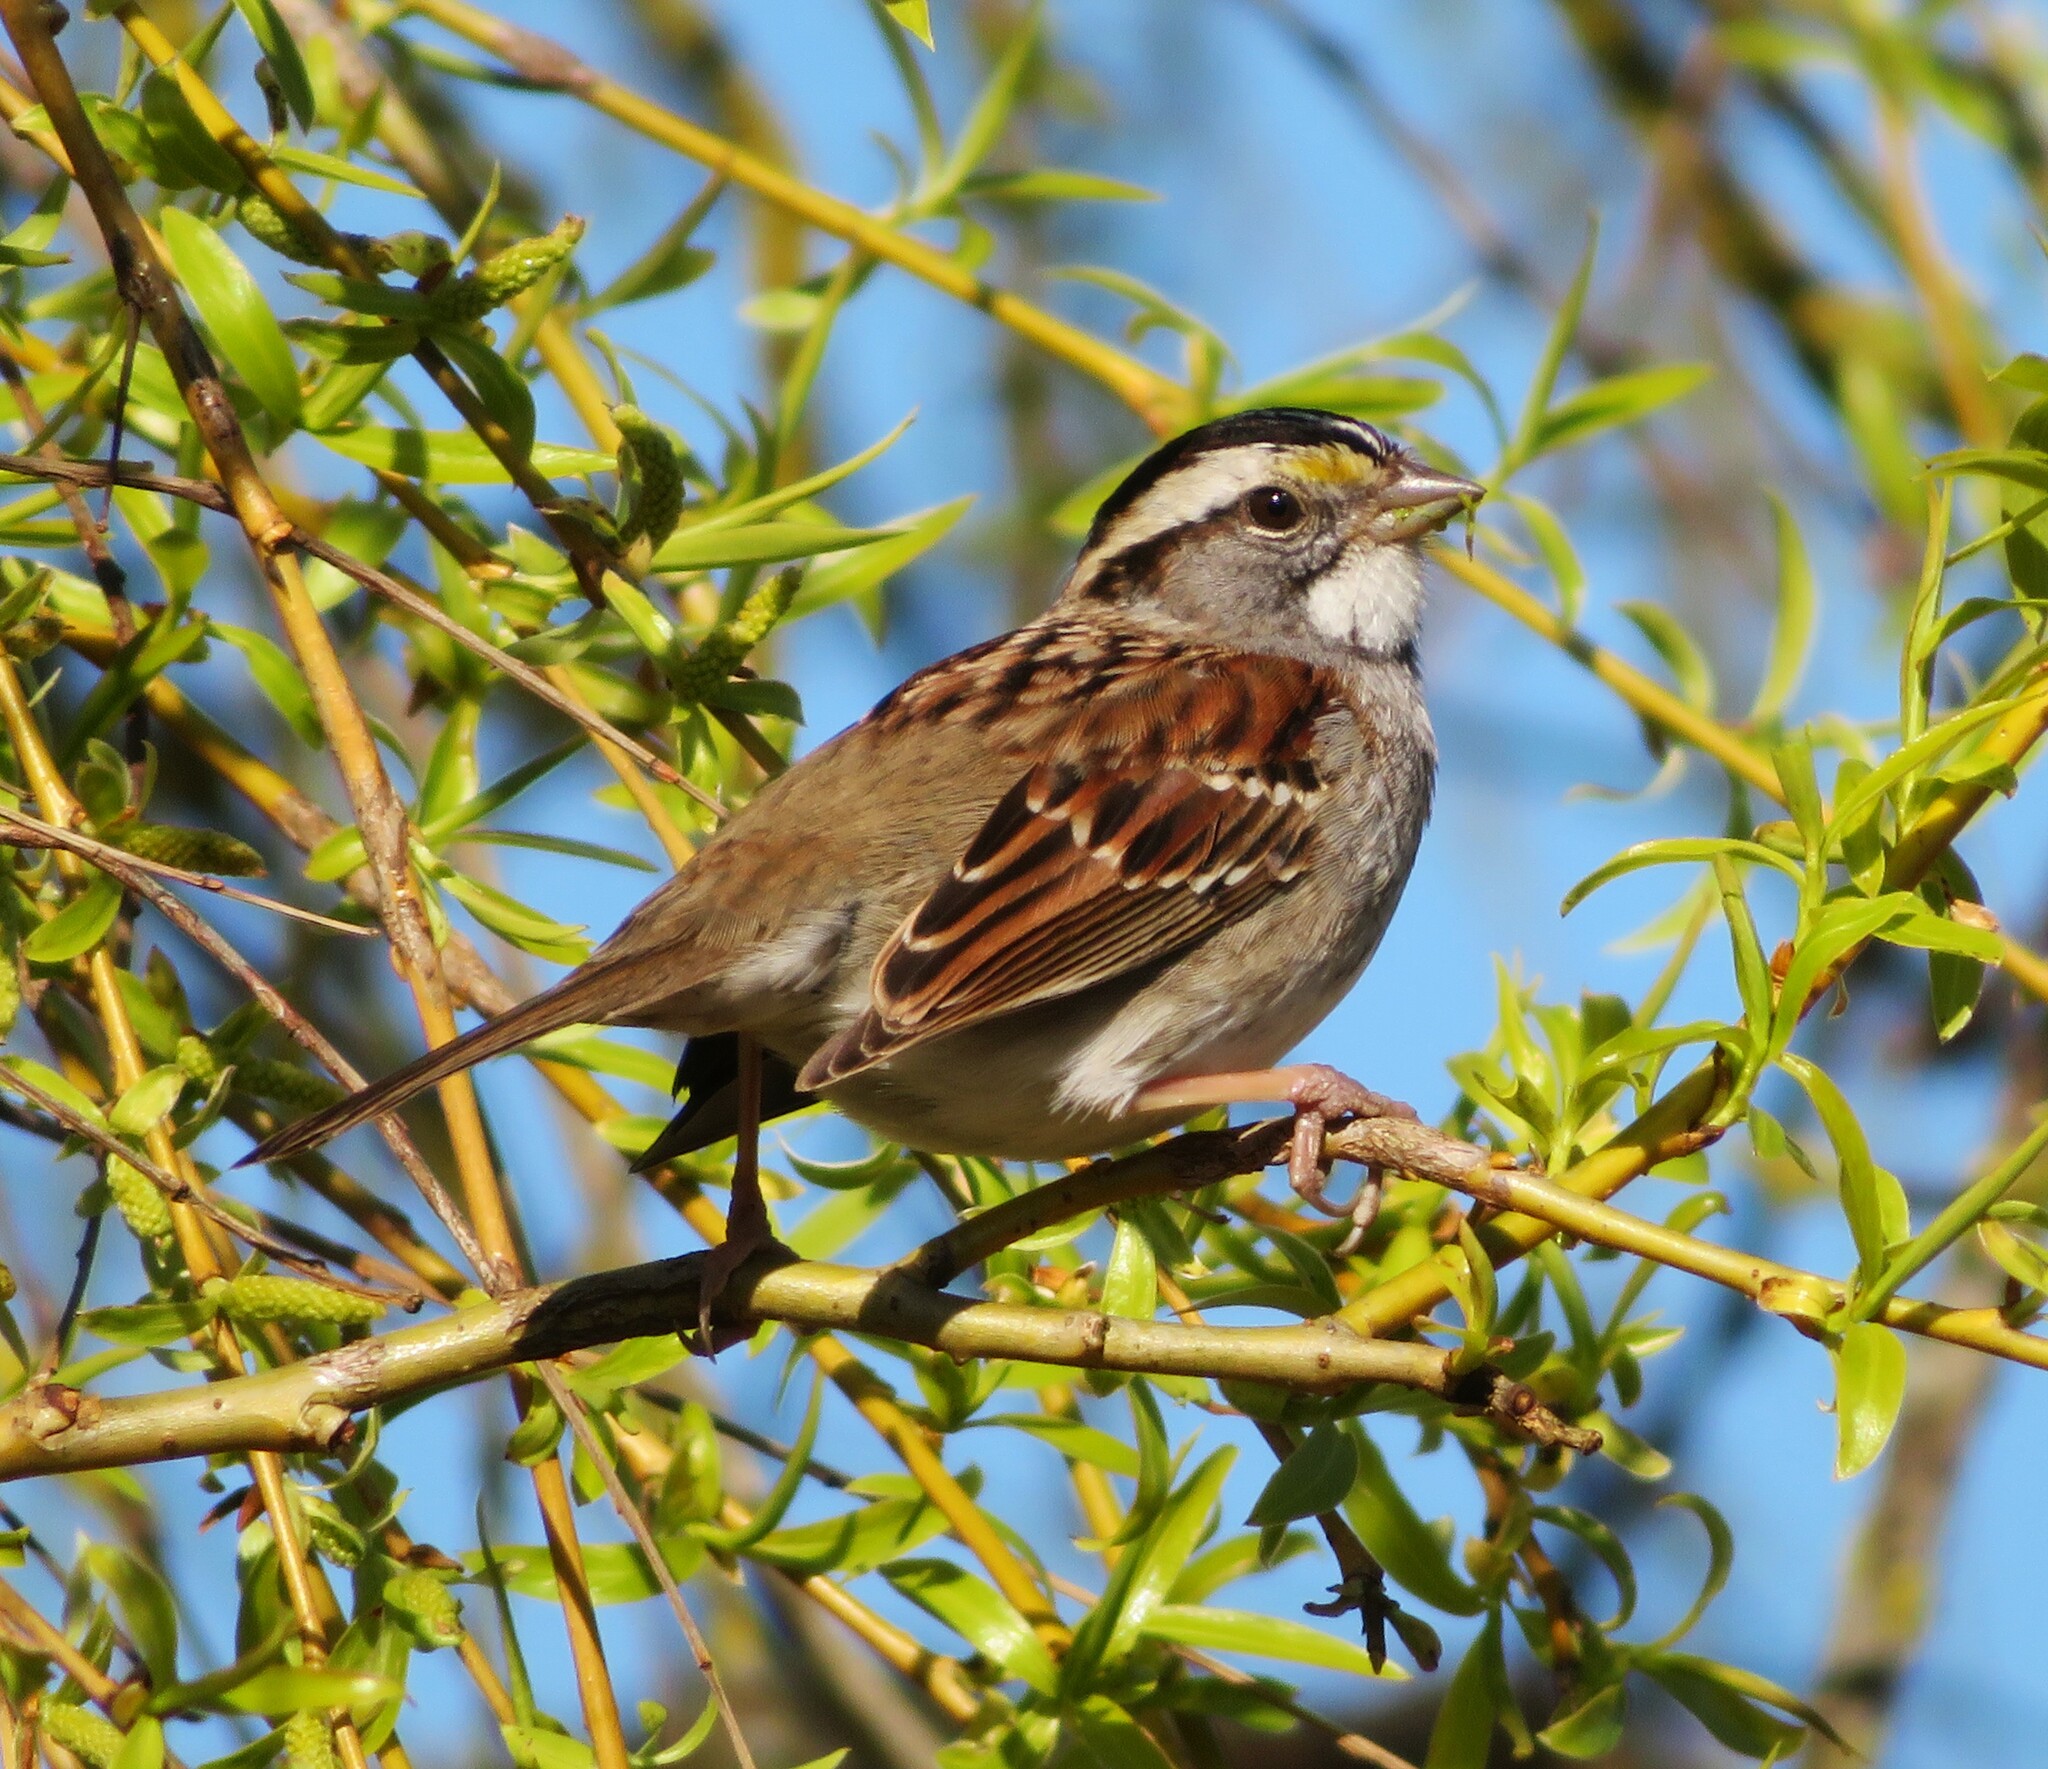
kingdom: Animalia
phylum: Chordata
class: Aves
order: Passeriformes
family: Passerellidae
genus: Zonotrichia
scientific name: Zonotrichia albicollis
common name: White-throated sparrow
